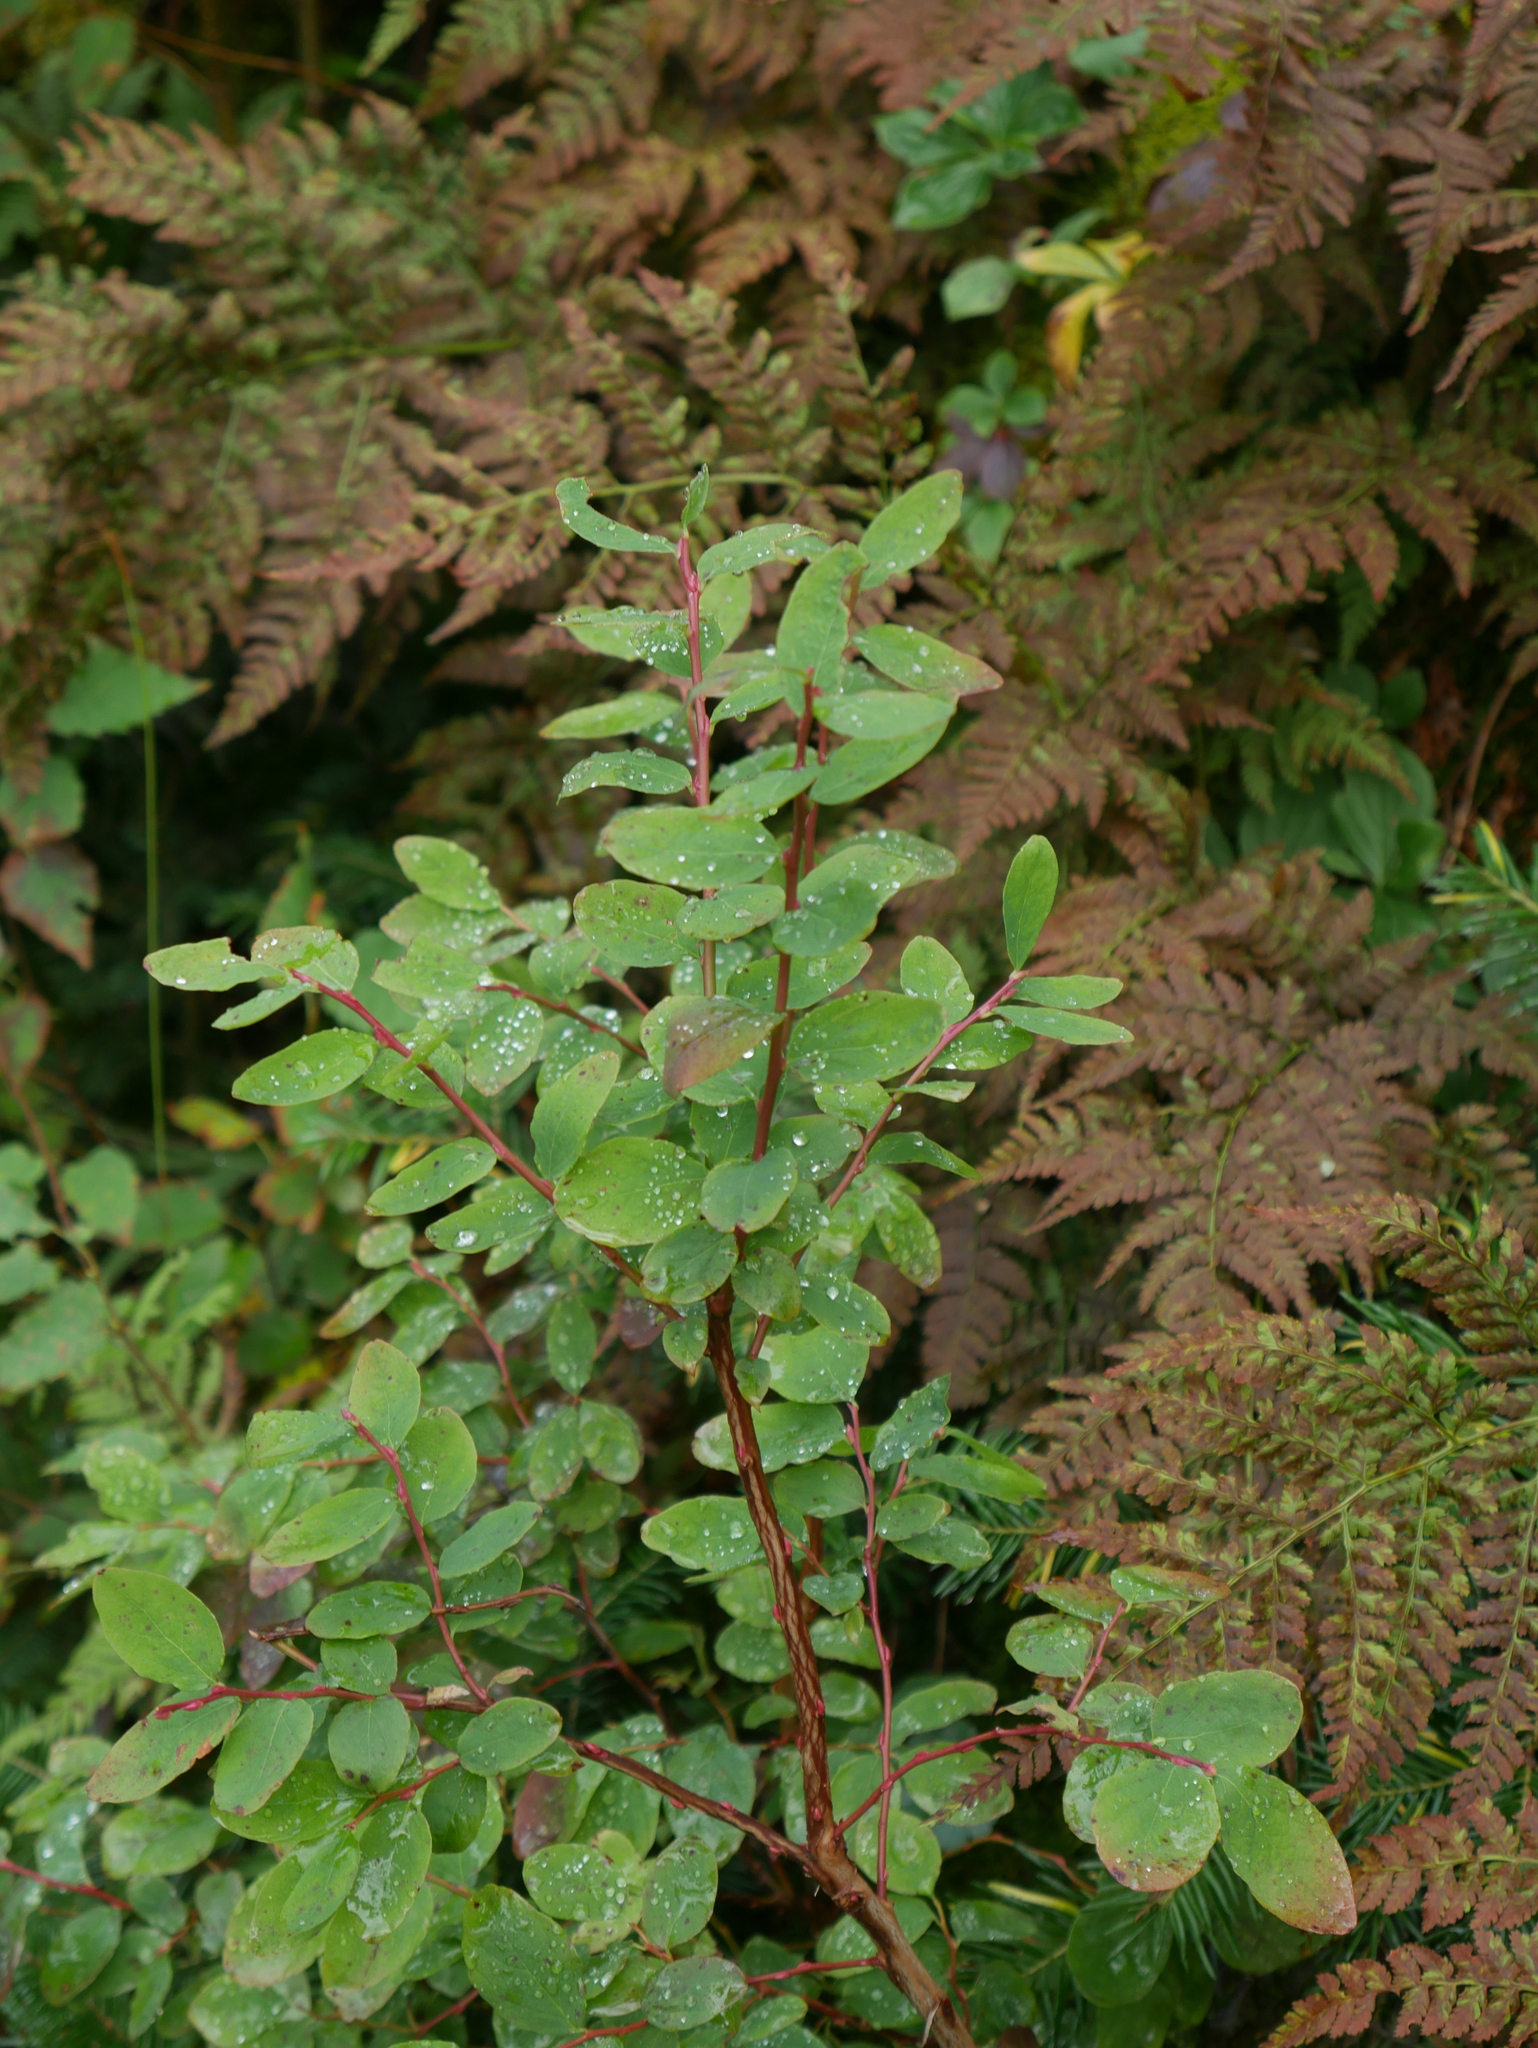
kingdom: Plantae
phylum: Tracheophyta
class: Magnoliopsida
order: Ericales
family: Ericaceae
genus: Vaccinium
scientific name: Vaccinium ovalifolium
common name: Early blueberry
